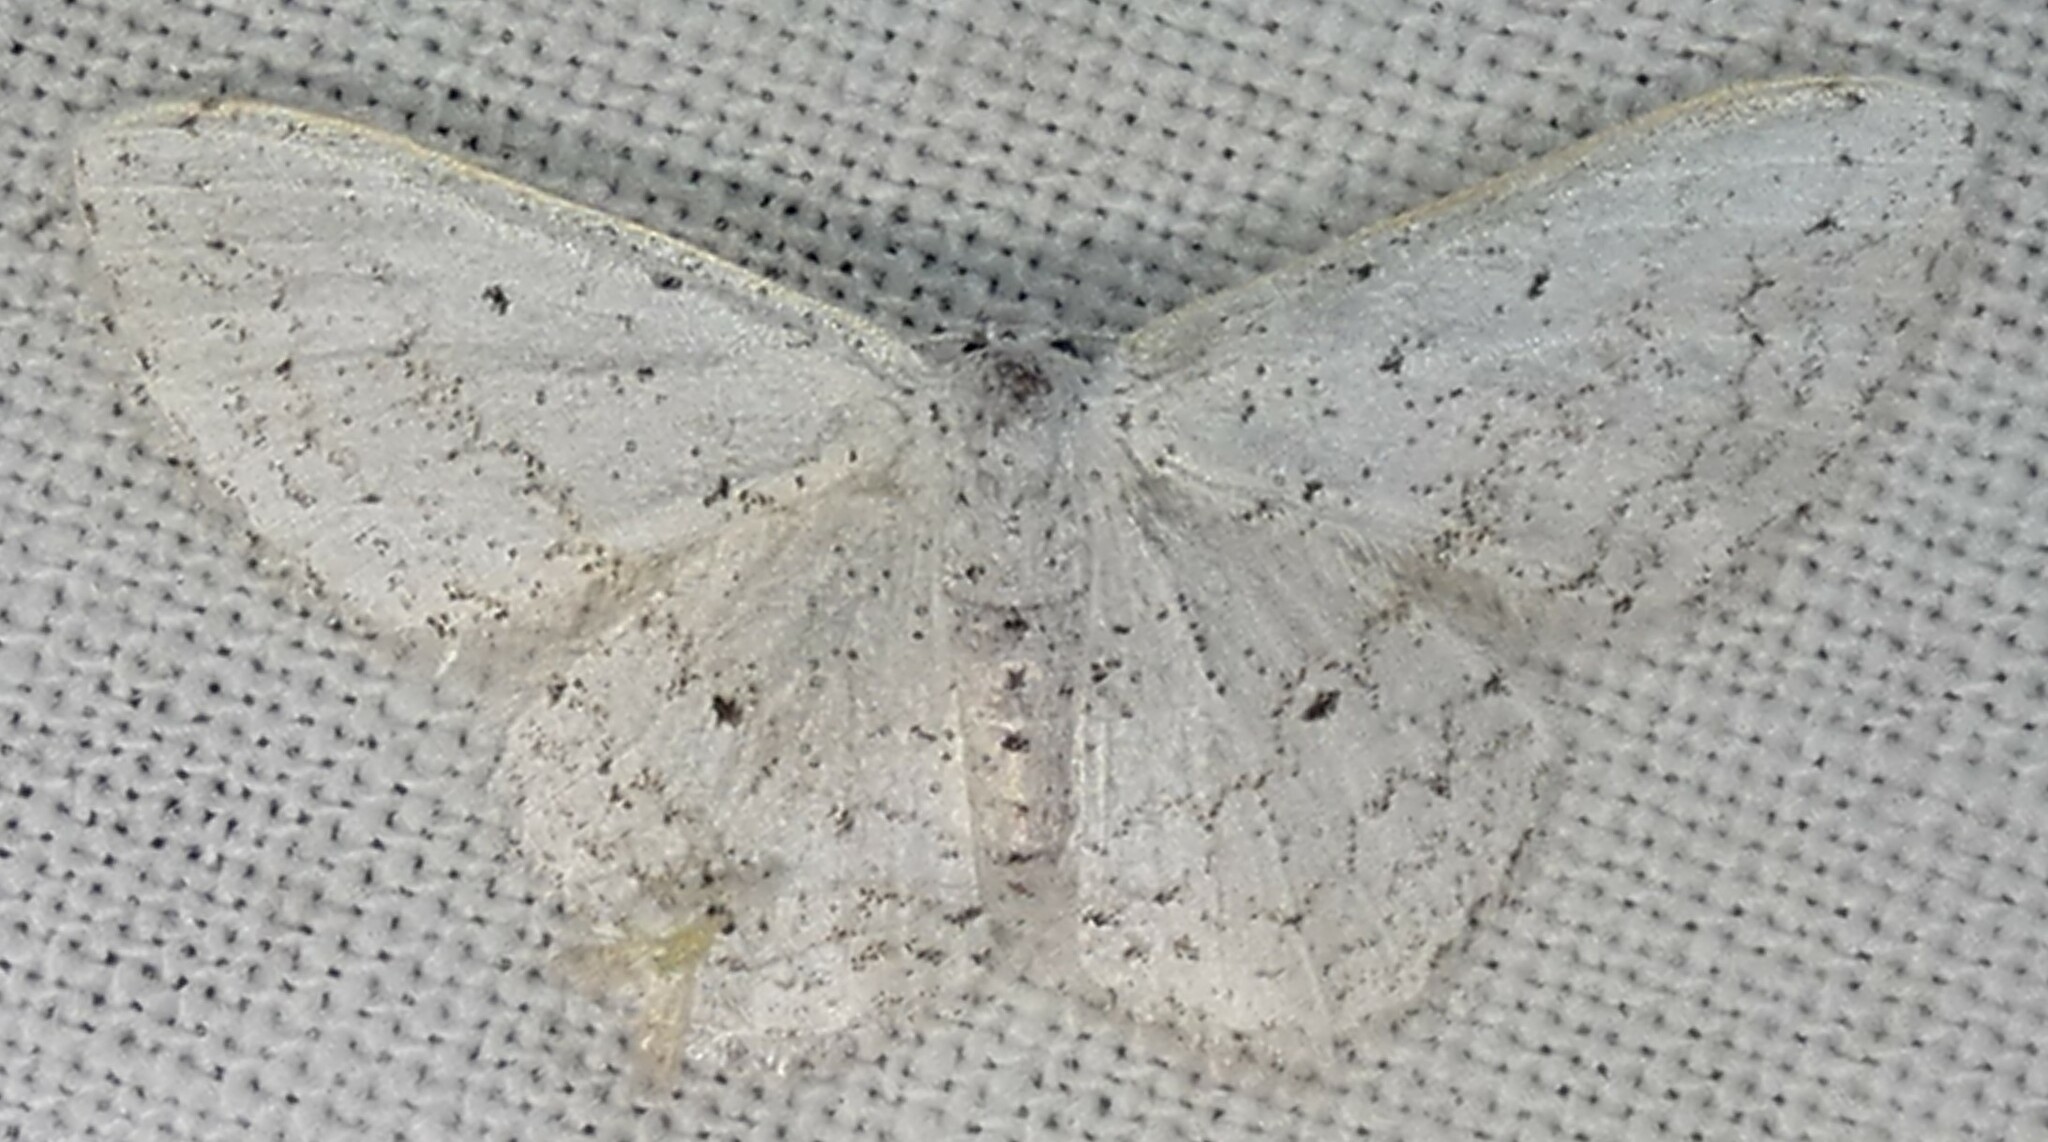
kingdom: Animalia
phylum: Arthropoda
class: Insecta
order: Lepidoptera
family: Geometridae
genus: Idaea
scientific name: Idaea tacturata
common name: Dot-lined wave
